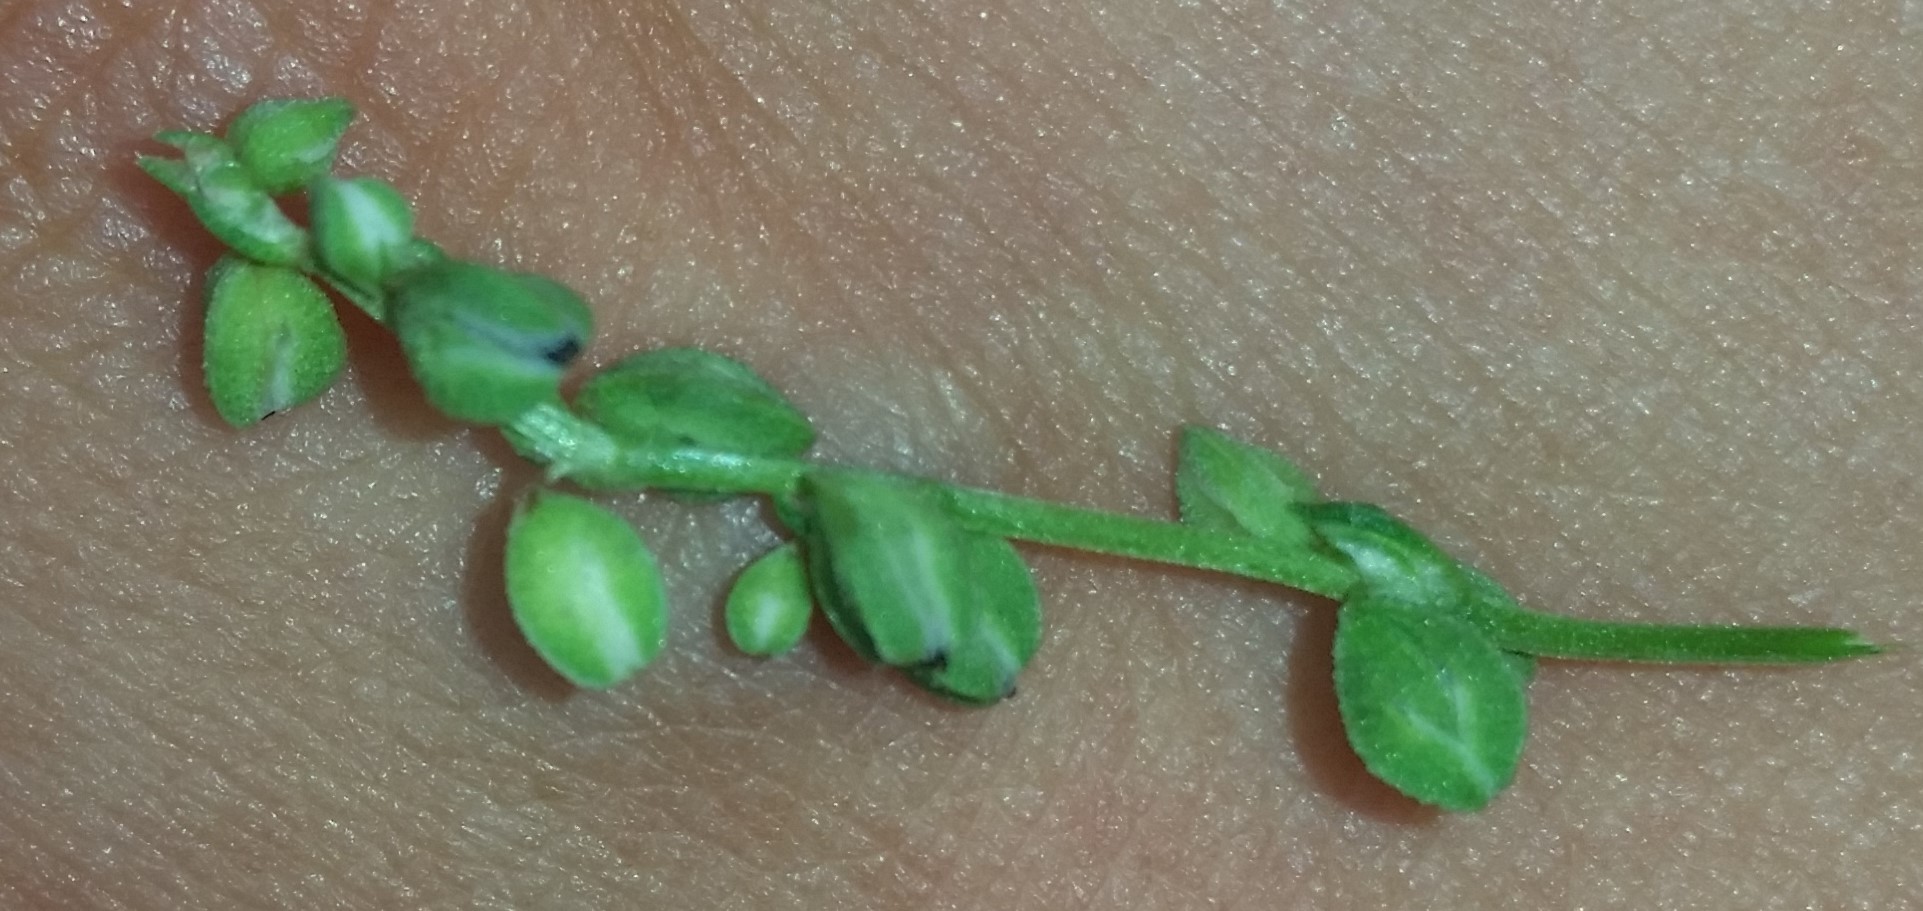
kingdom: Plantae
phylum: Tracheophyta
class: Magnoliopsida
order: Caryophyllales
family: Polygonaceae
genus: Fallopia
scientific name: Fallopia convolvulus
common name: Black bindweed
